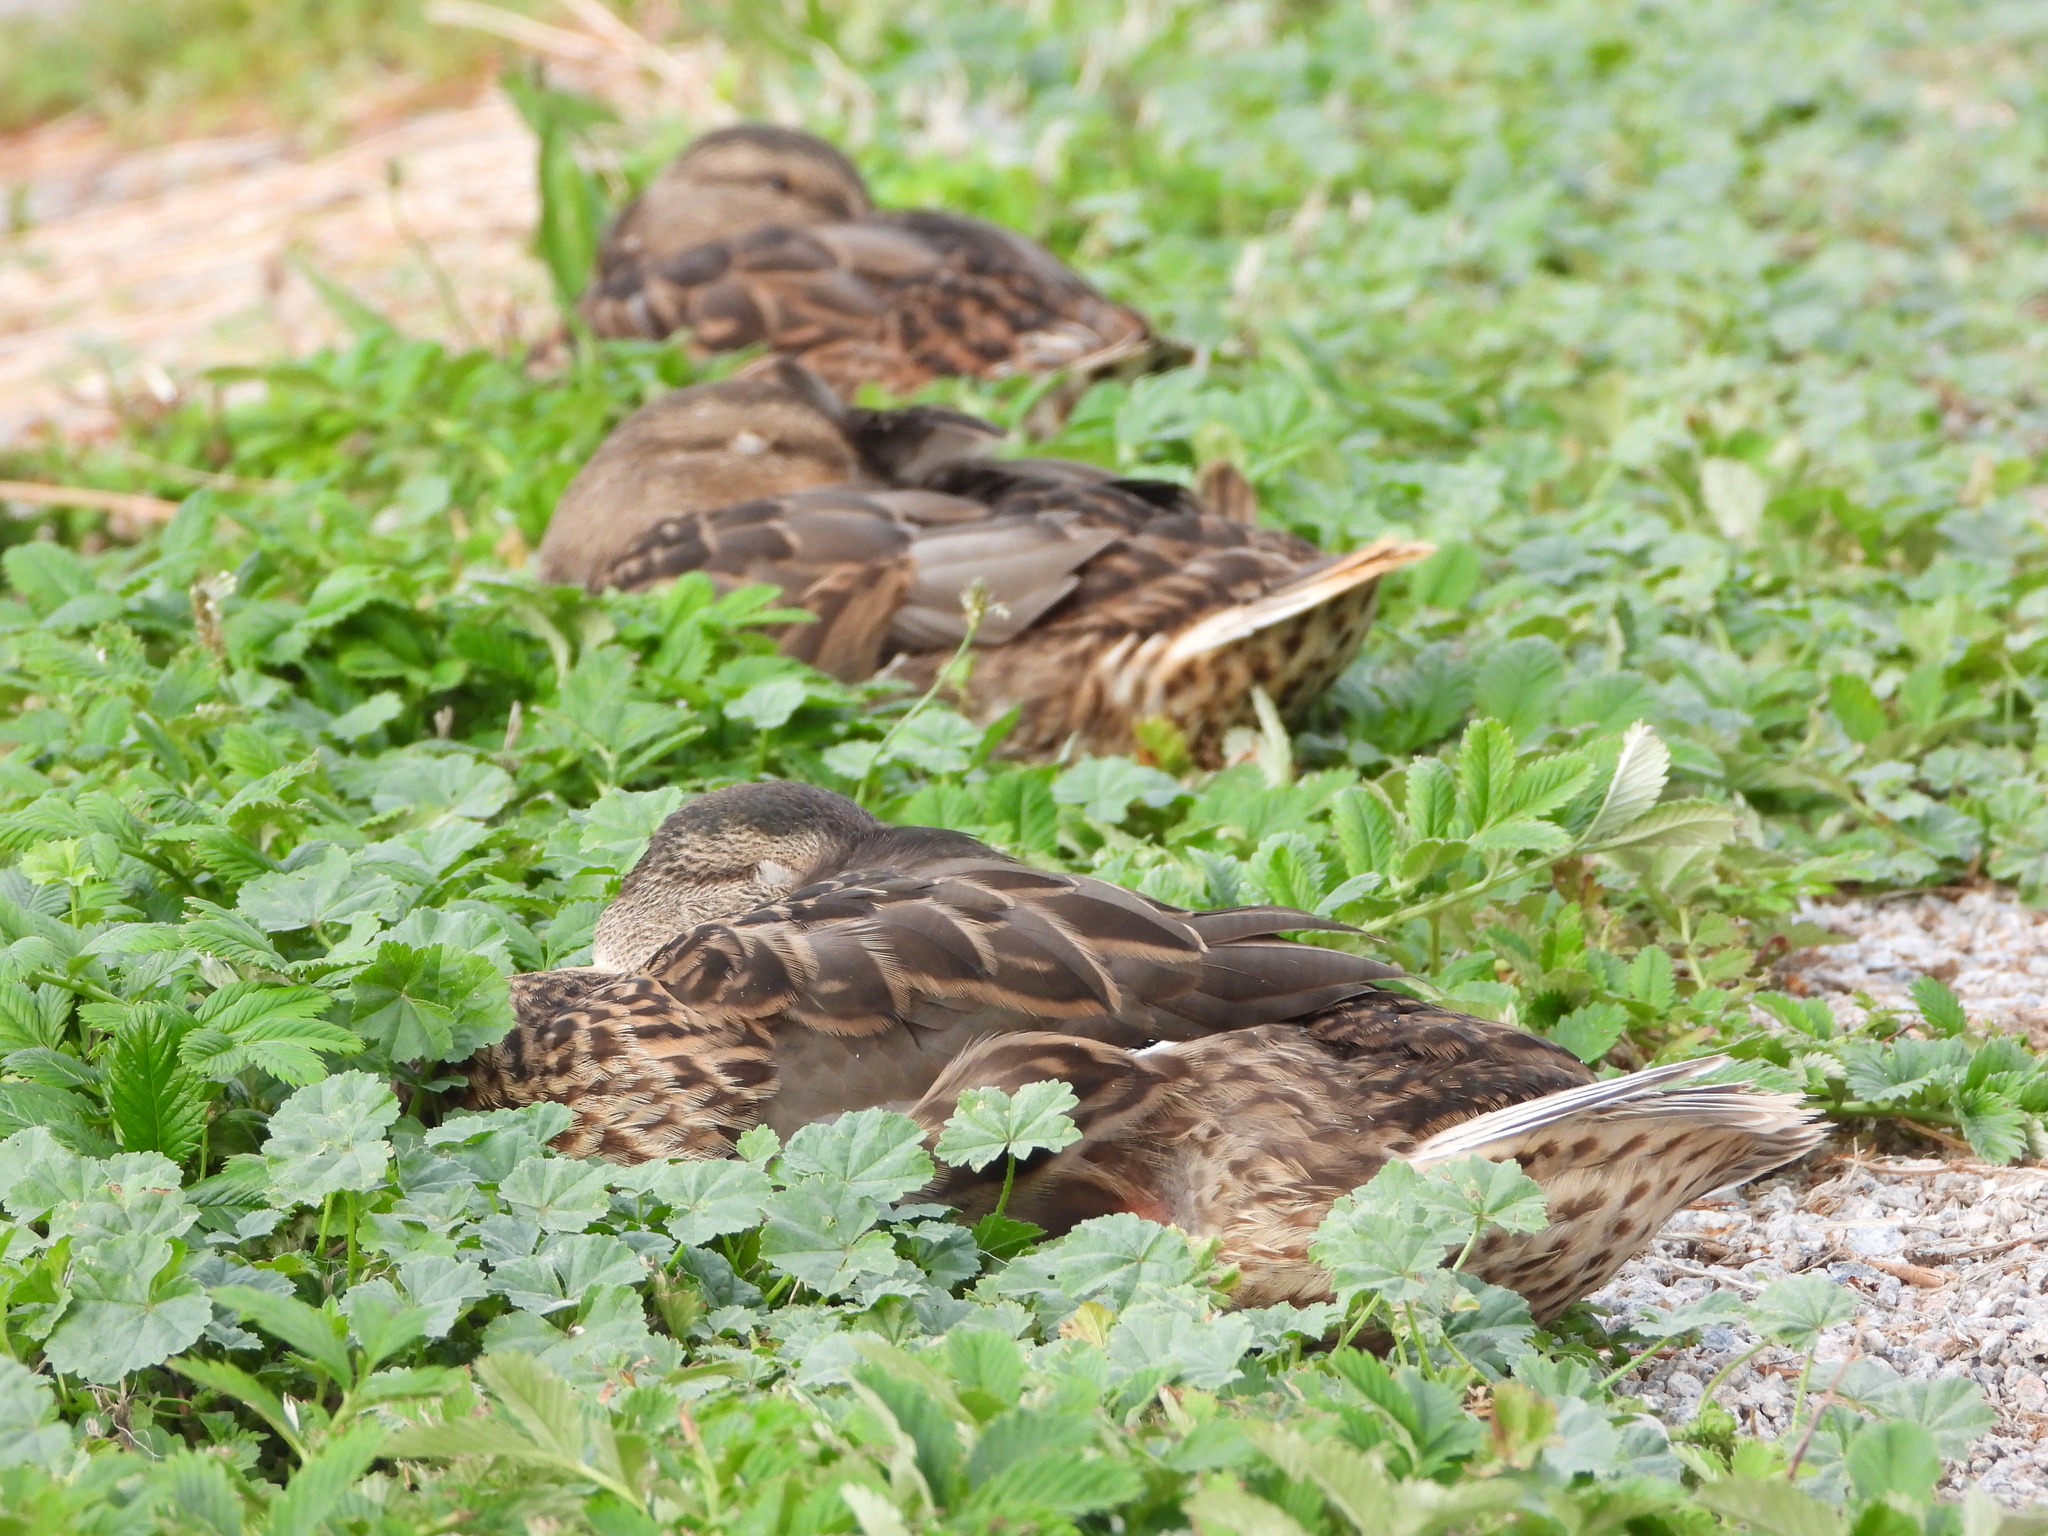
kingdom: Animalia
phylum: Chordata
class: Aves
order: Anseriformes
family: Anatidae
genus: Anas
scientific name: Anas platyrhynchos
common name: Mallard
